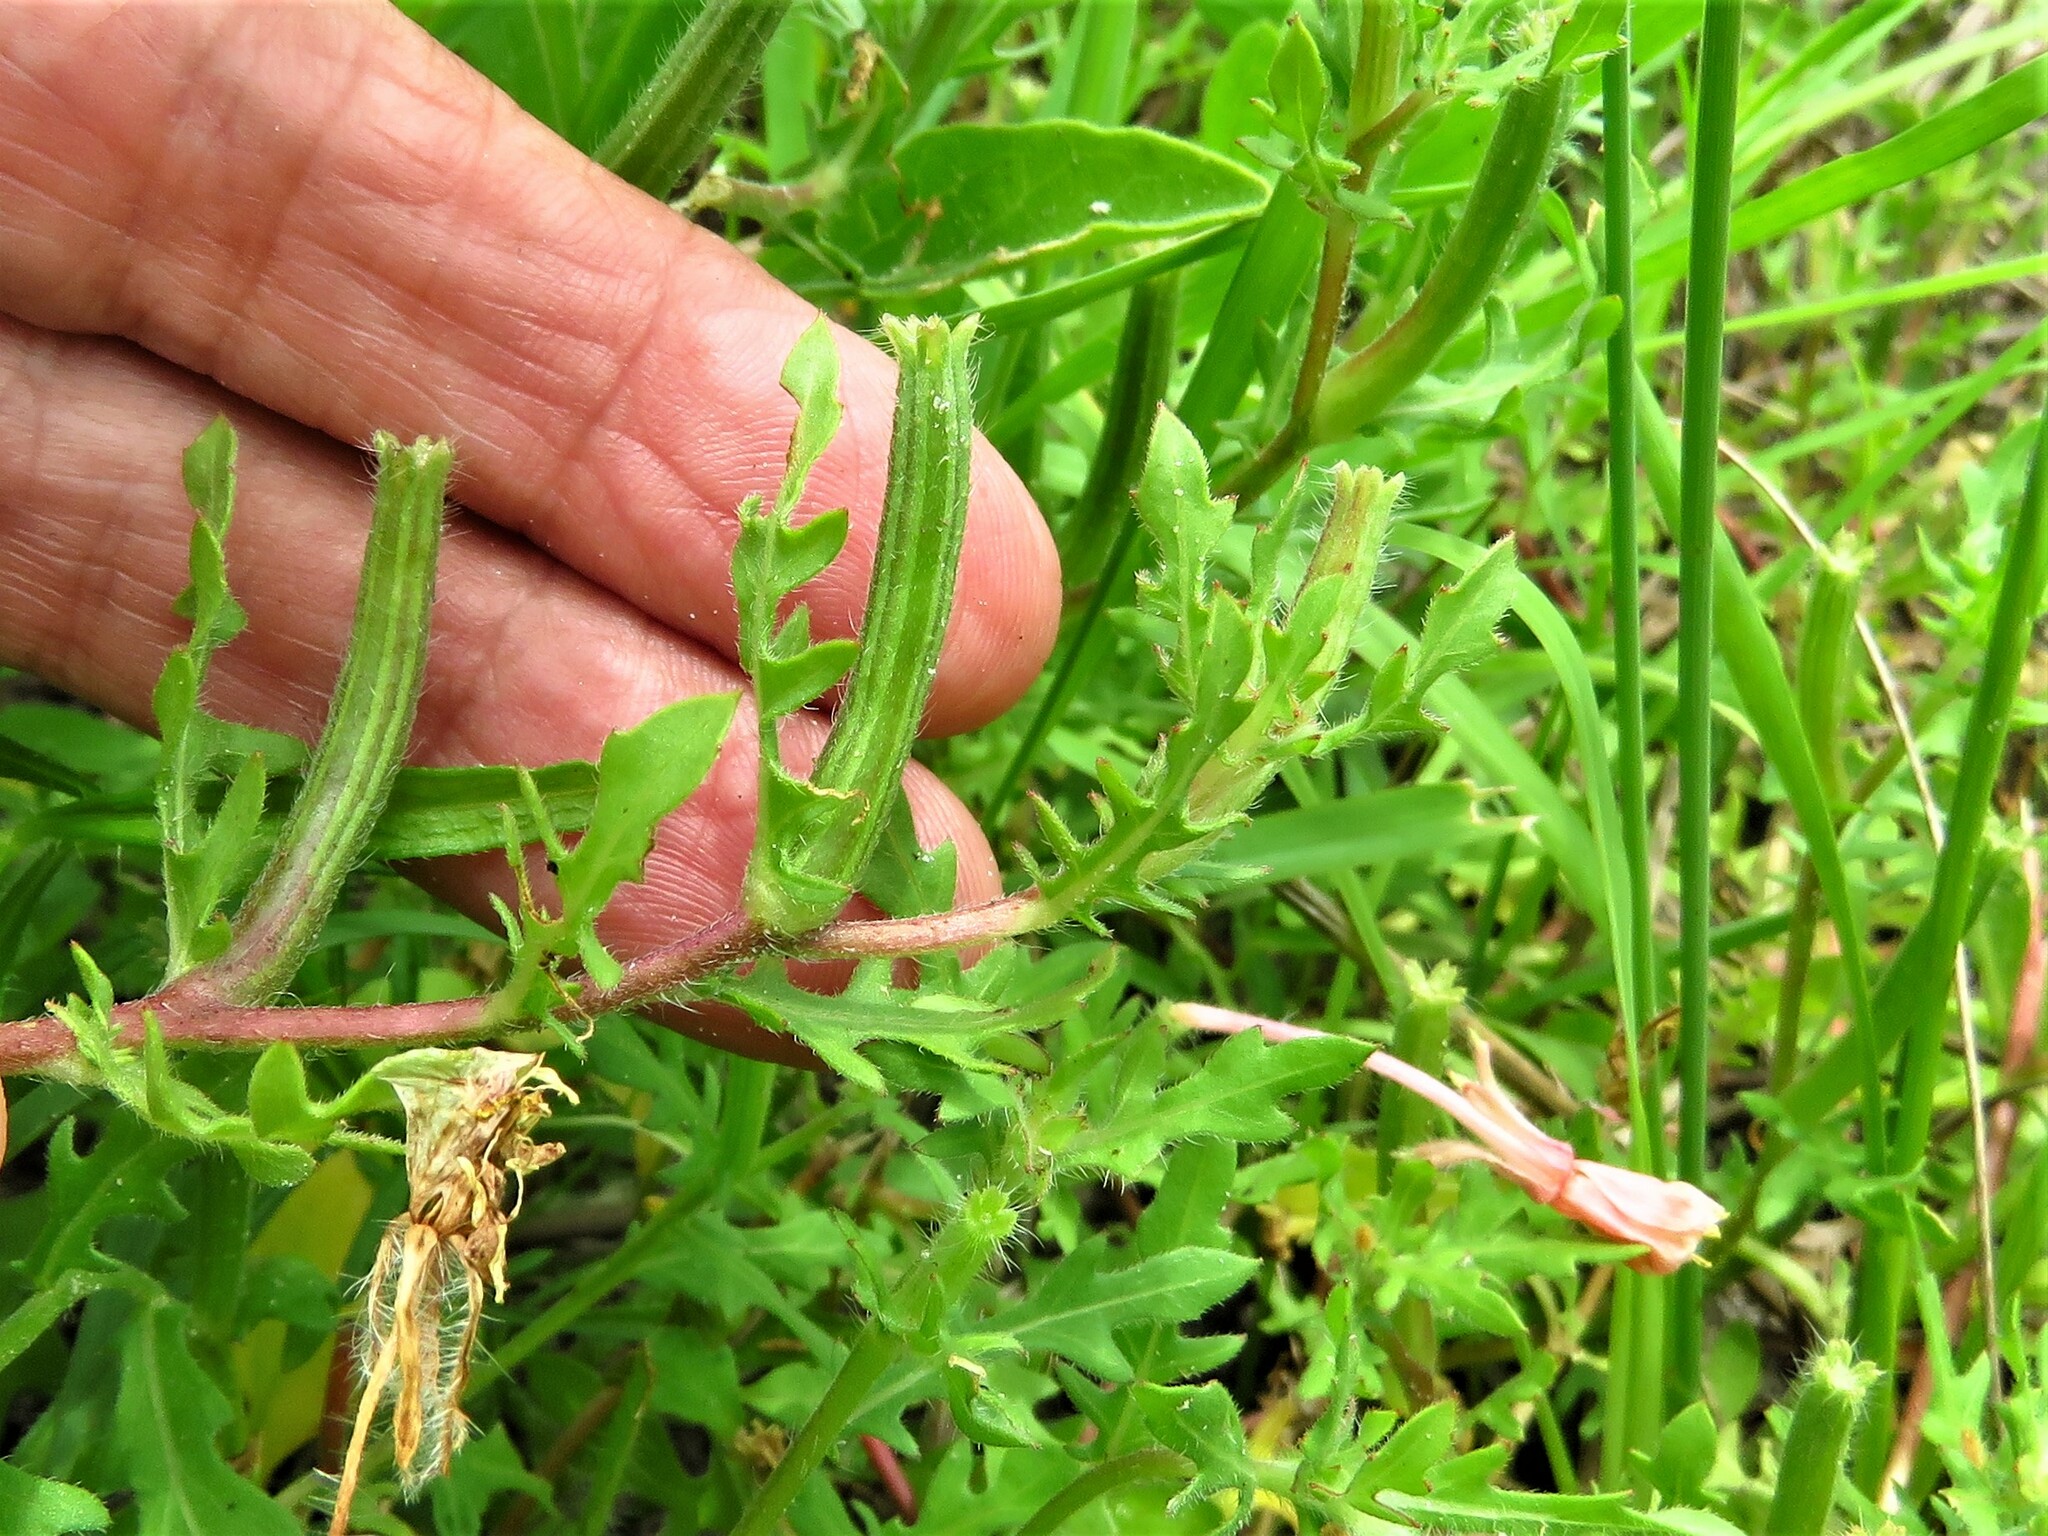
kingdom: Plantae
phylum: Tracheophyta
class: Magnoliopsida
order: Myrtales
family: Onagraceae
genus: Oenothera
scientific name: Oenothera laciniata
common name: Cut-leaved evening-primrose
